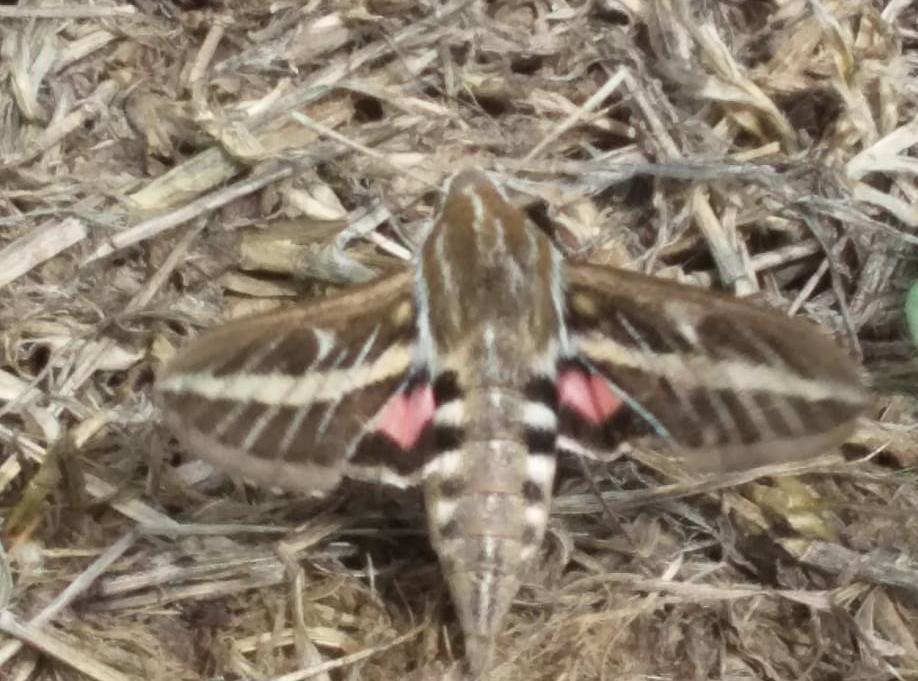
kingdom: Animalia
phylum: Arthropoda
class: Insecta
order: Lepidoptera
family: Sphingidae
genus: Hyles
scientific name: Hyles lineata
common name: White-lined sphinx
